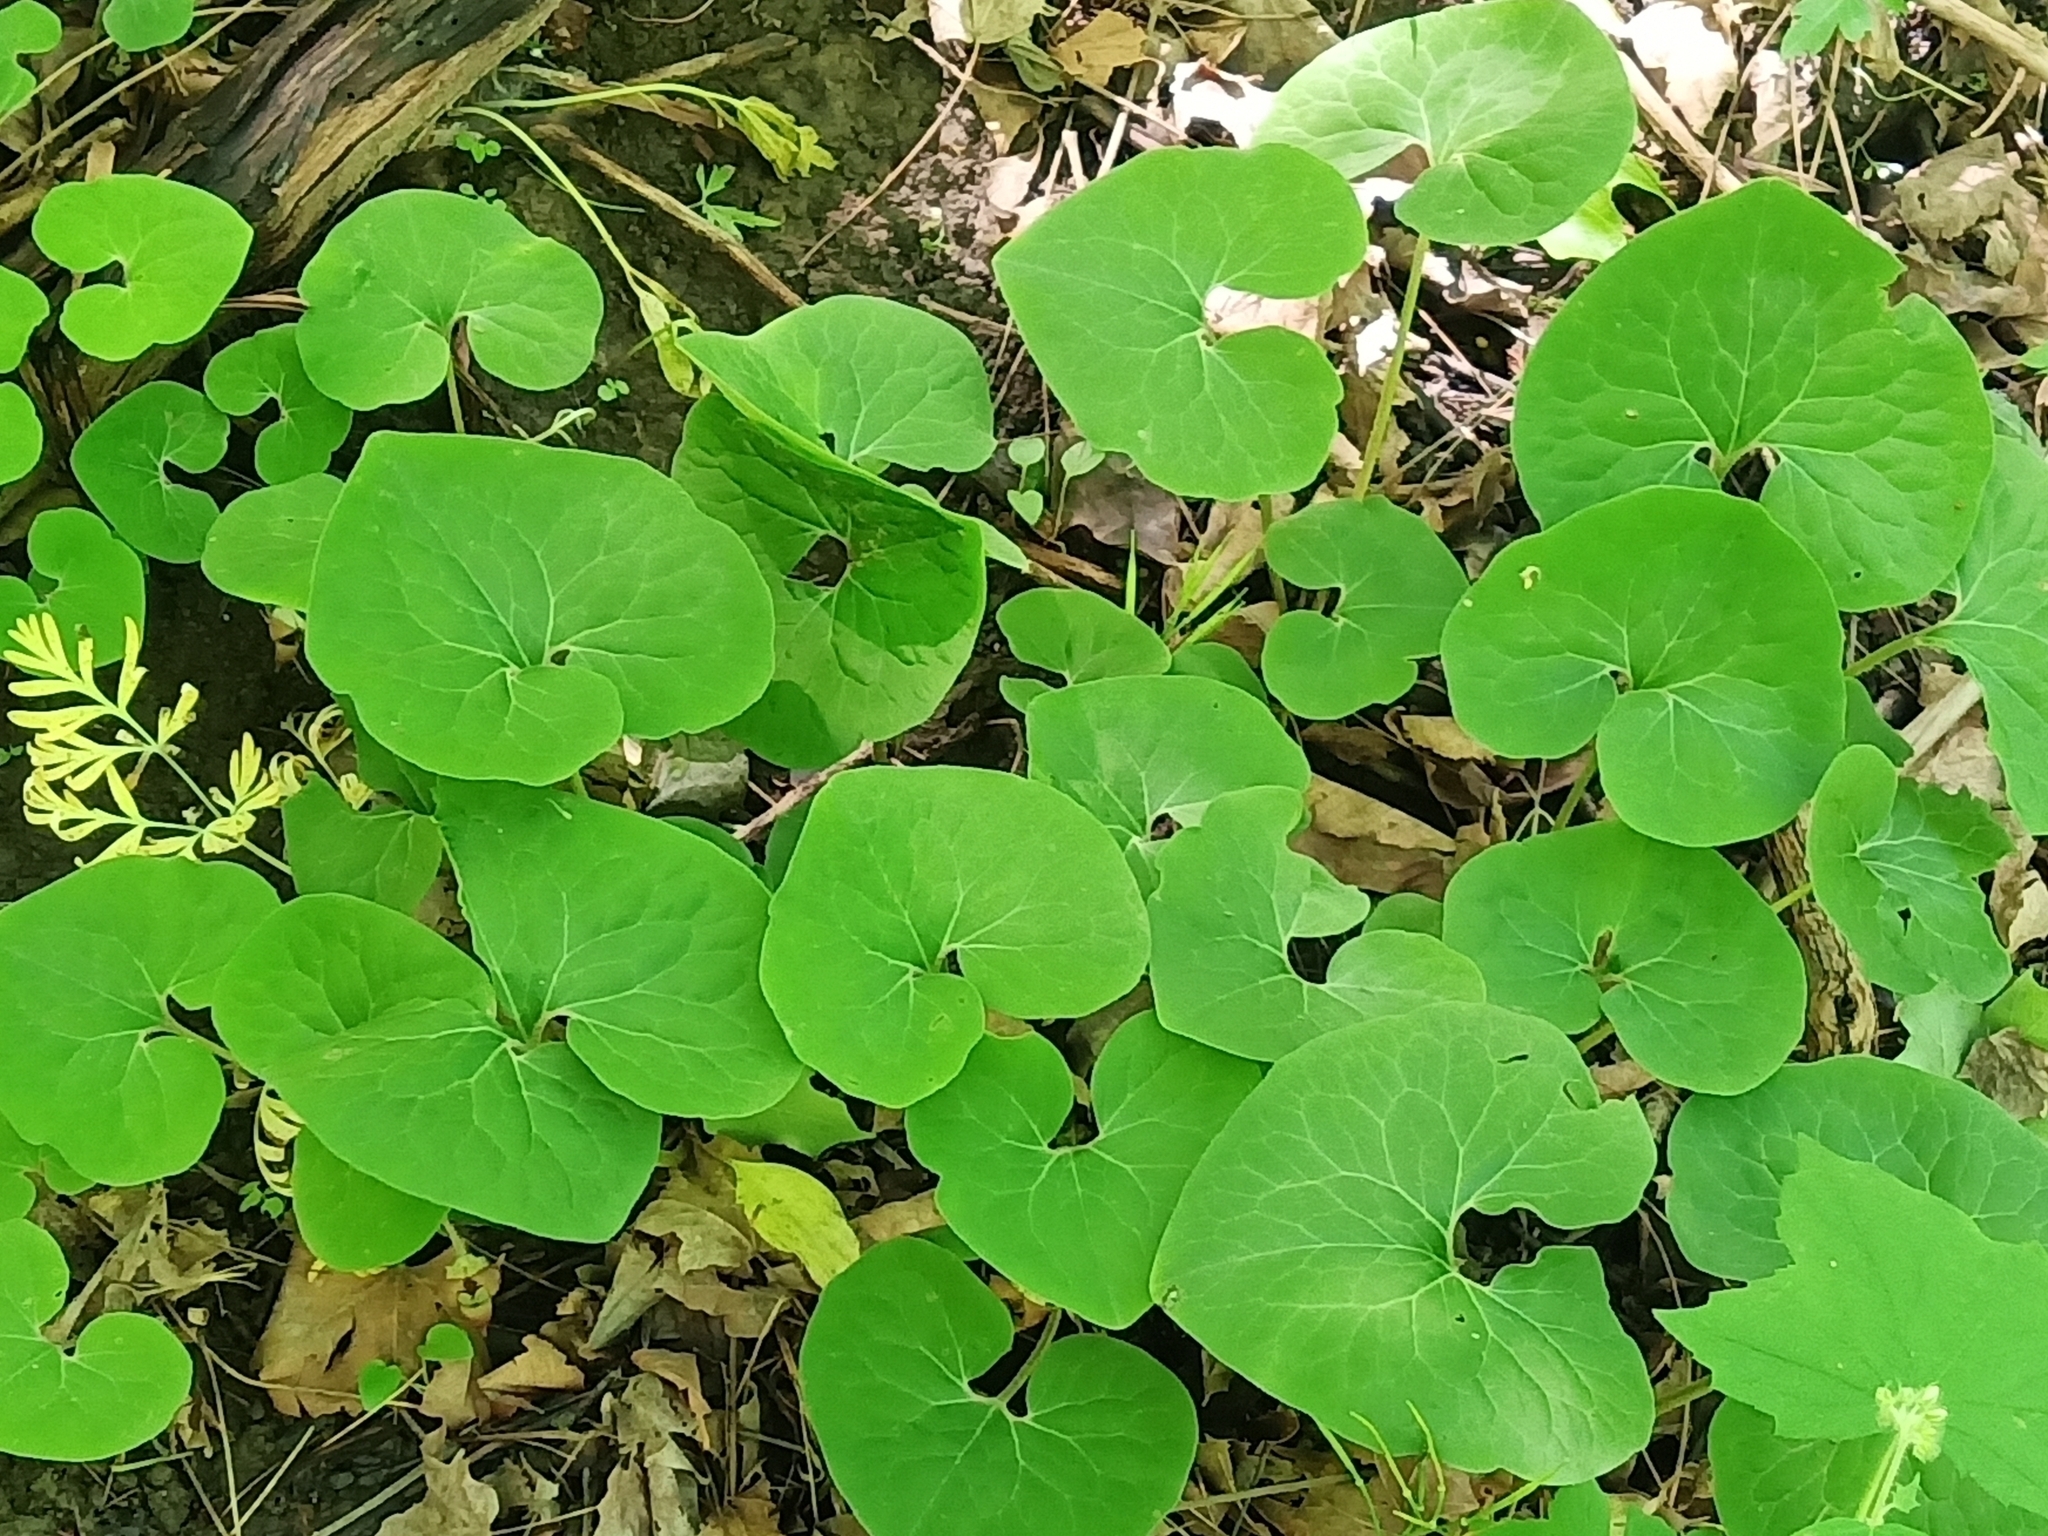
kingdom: Plantae
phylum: Tracheophyta
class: Magnoliopsida
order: Piperales
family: Aristolochiaceae
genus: Asarum
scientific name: Asarum canadense
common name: Wild ginger
